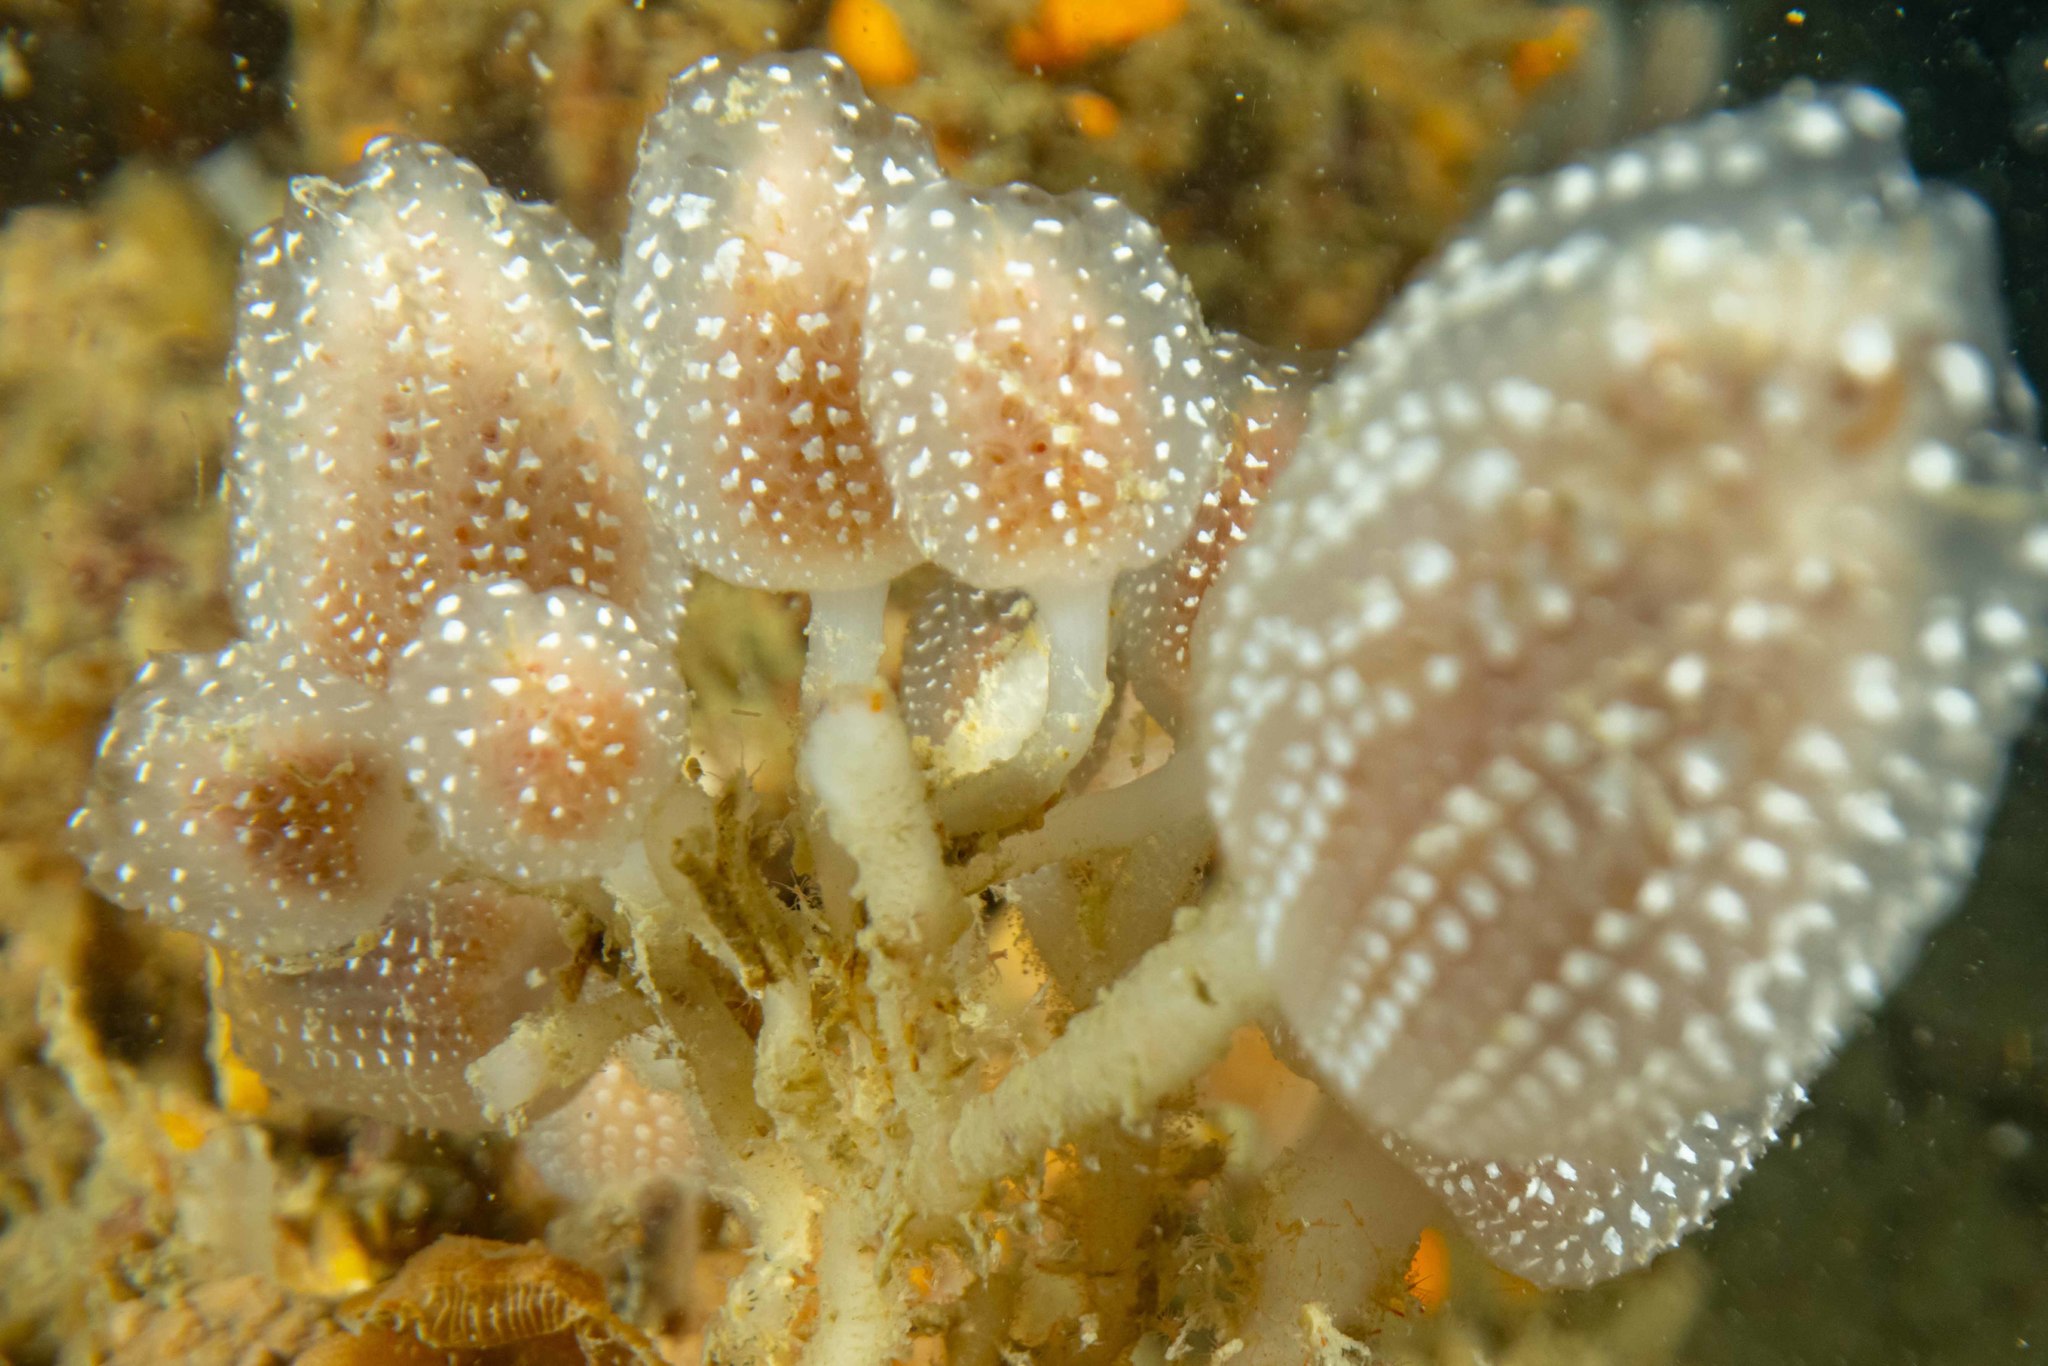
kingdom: Animalia
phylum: Chordata
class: Ascidiacea
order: Aplousobranchia
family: Holozoidae
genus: Sycozoa
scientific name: Sycozoa sigillinoides
